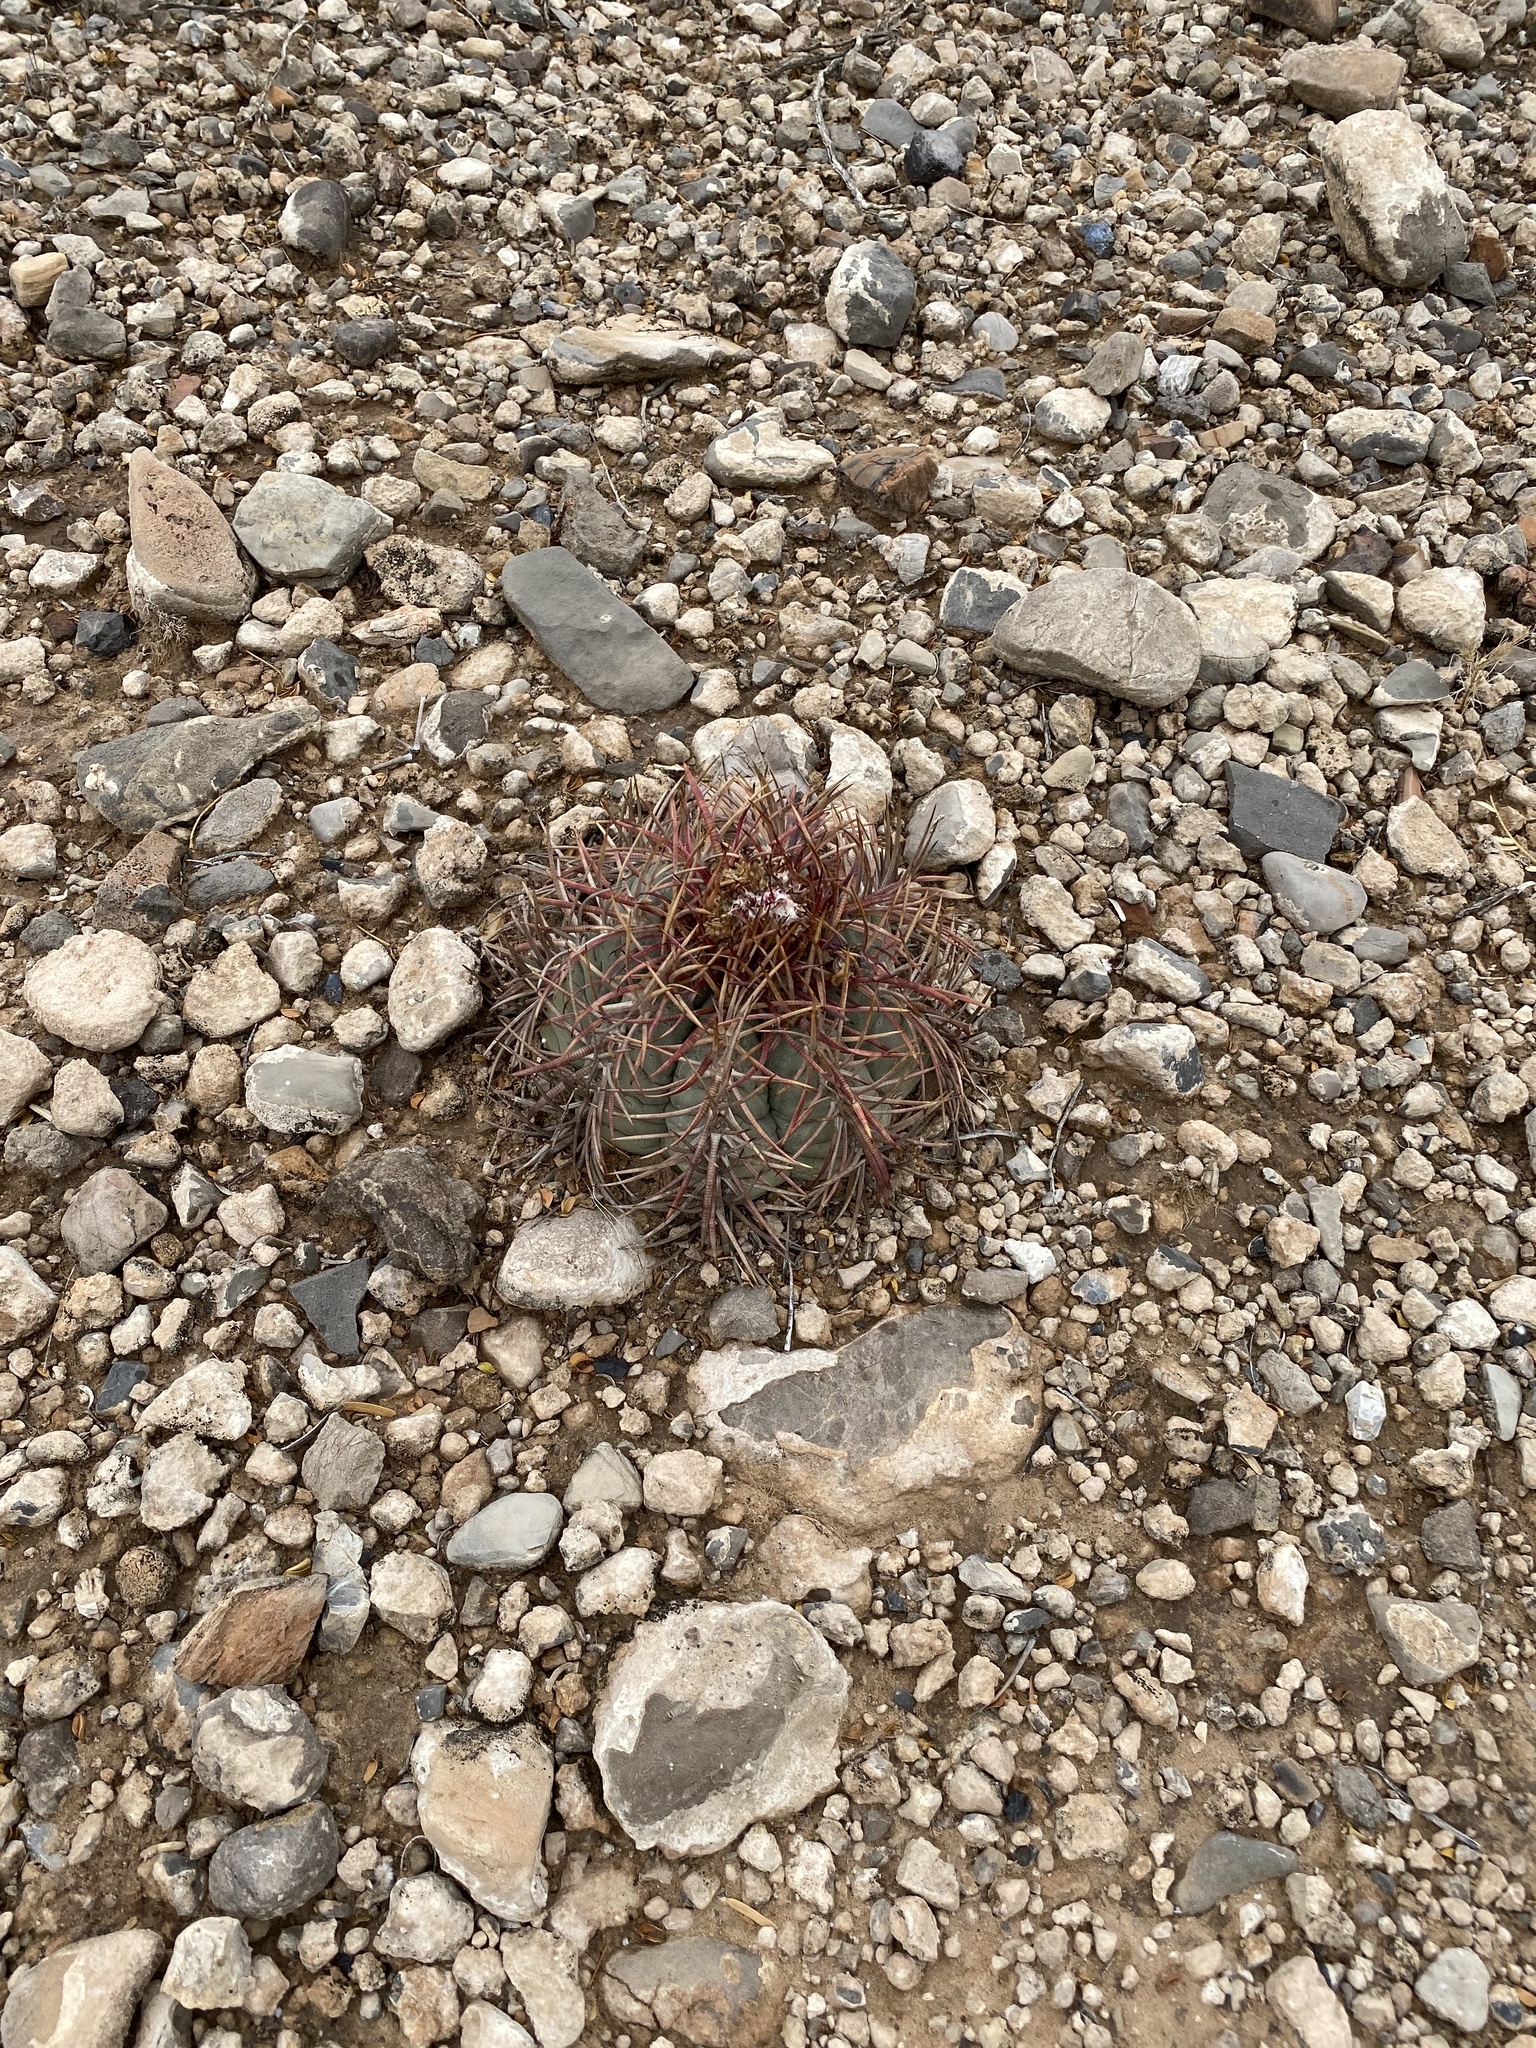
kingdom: Plantae
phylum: Tracheophyta
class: Magnoliopsida
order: Caryophyllales
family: Cactaceae
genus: Echinocactus
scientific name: Echinocactus horizonthalonius
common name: Devilshead
